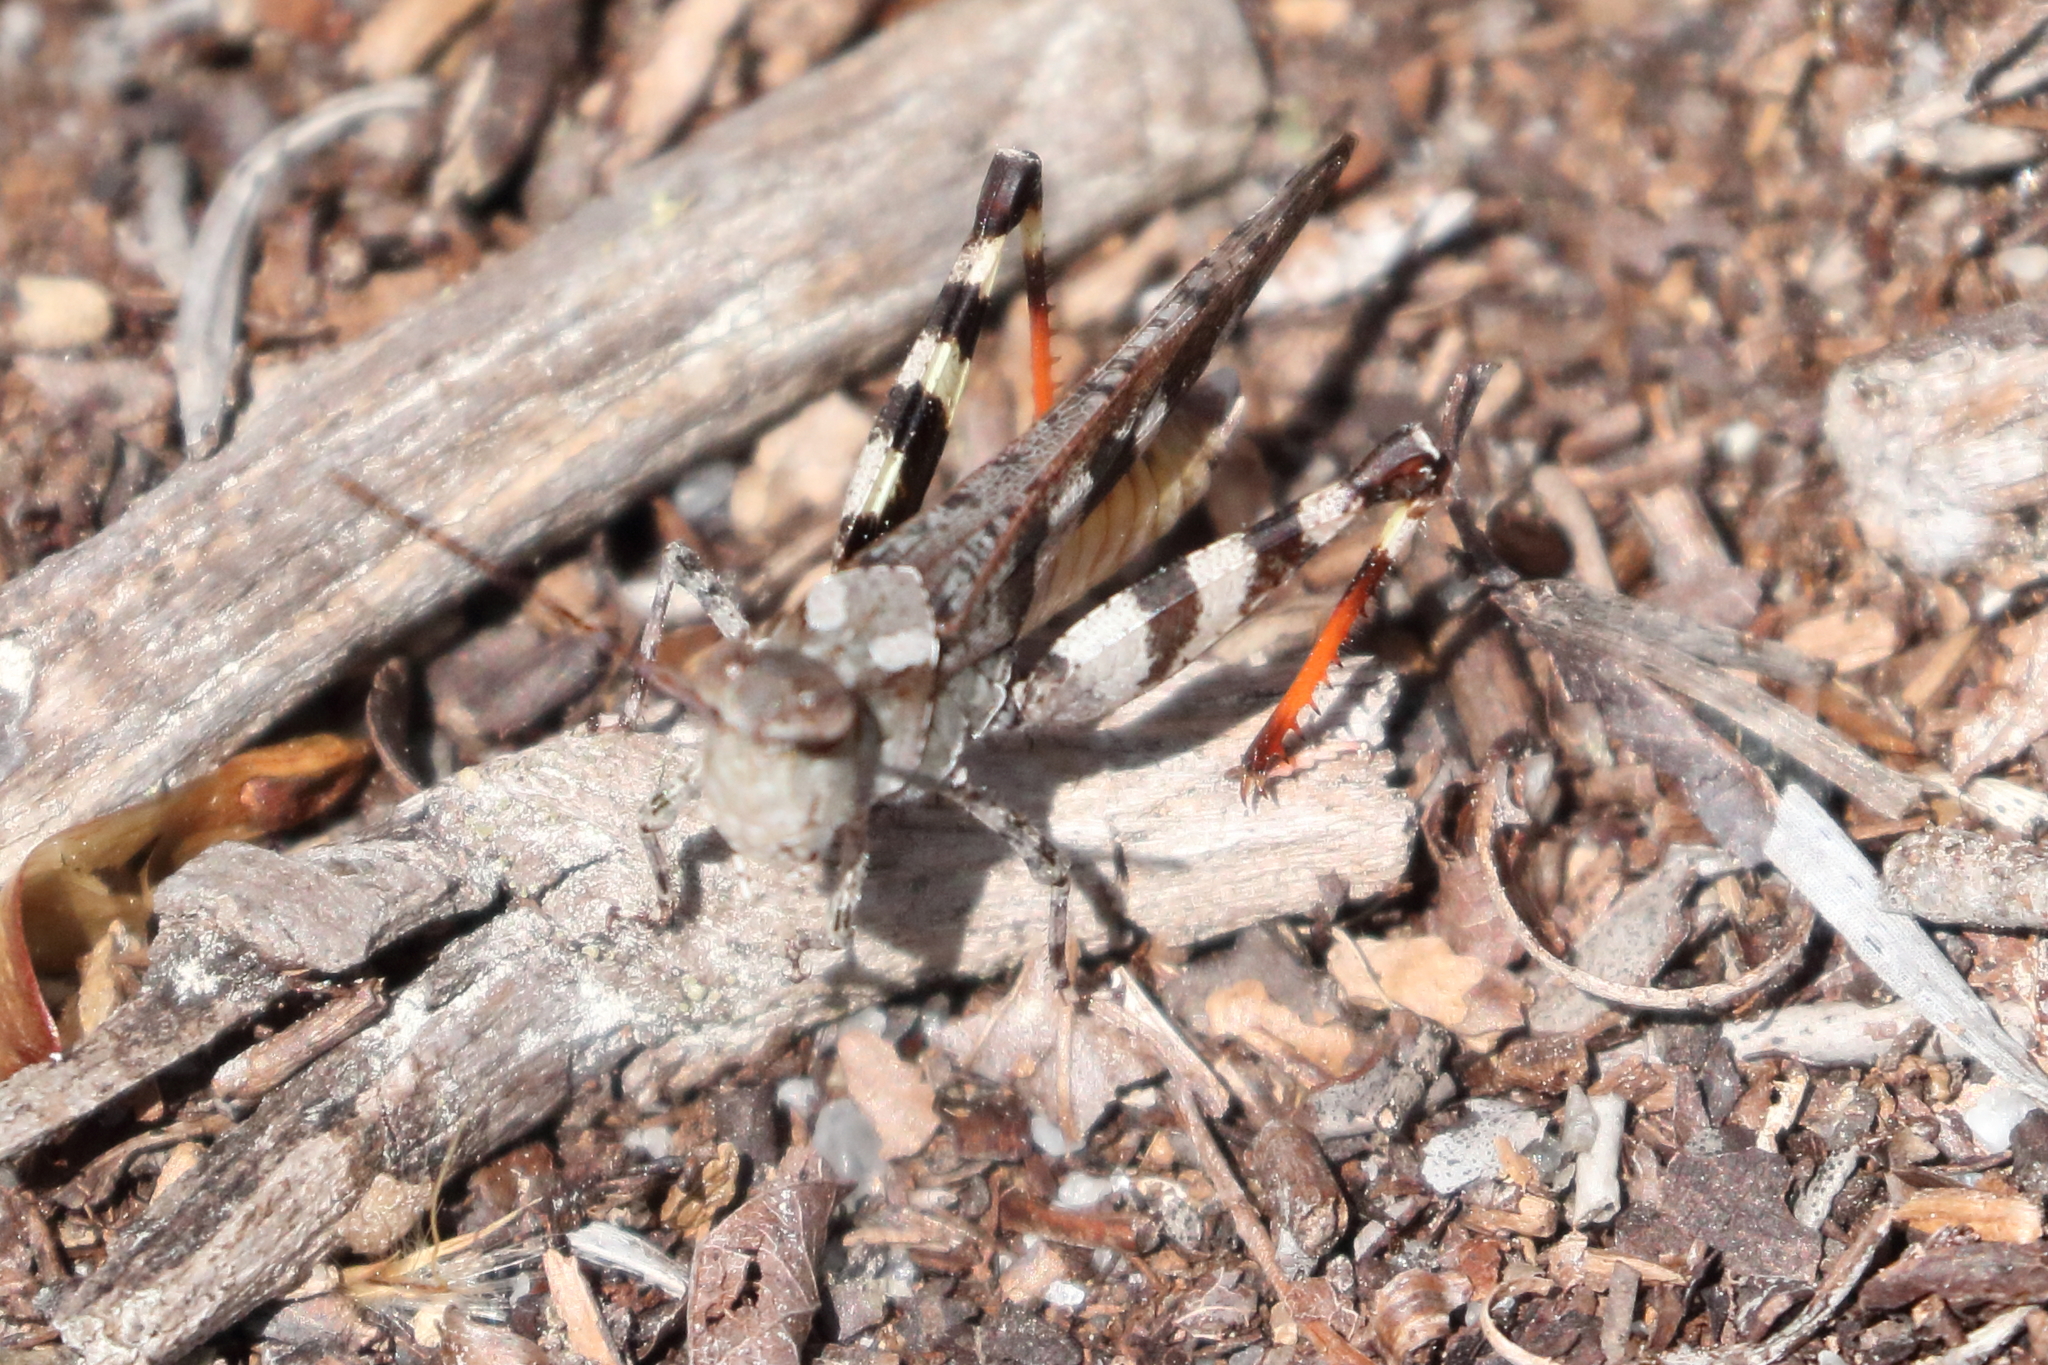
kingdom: Animalia
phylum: Arthropoda
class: Insecta
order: Orthoptera
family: Acrididae
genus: Spharagemon
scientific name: Spharagemon marmoratum
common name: Marbled grasshopper
